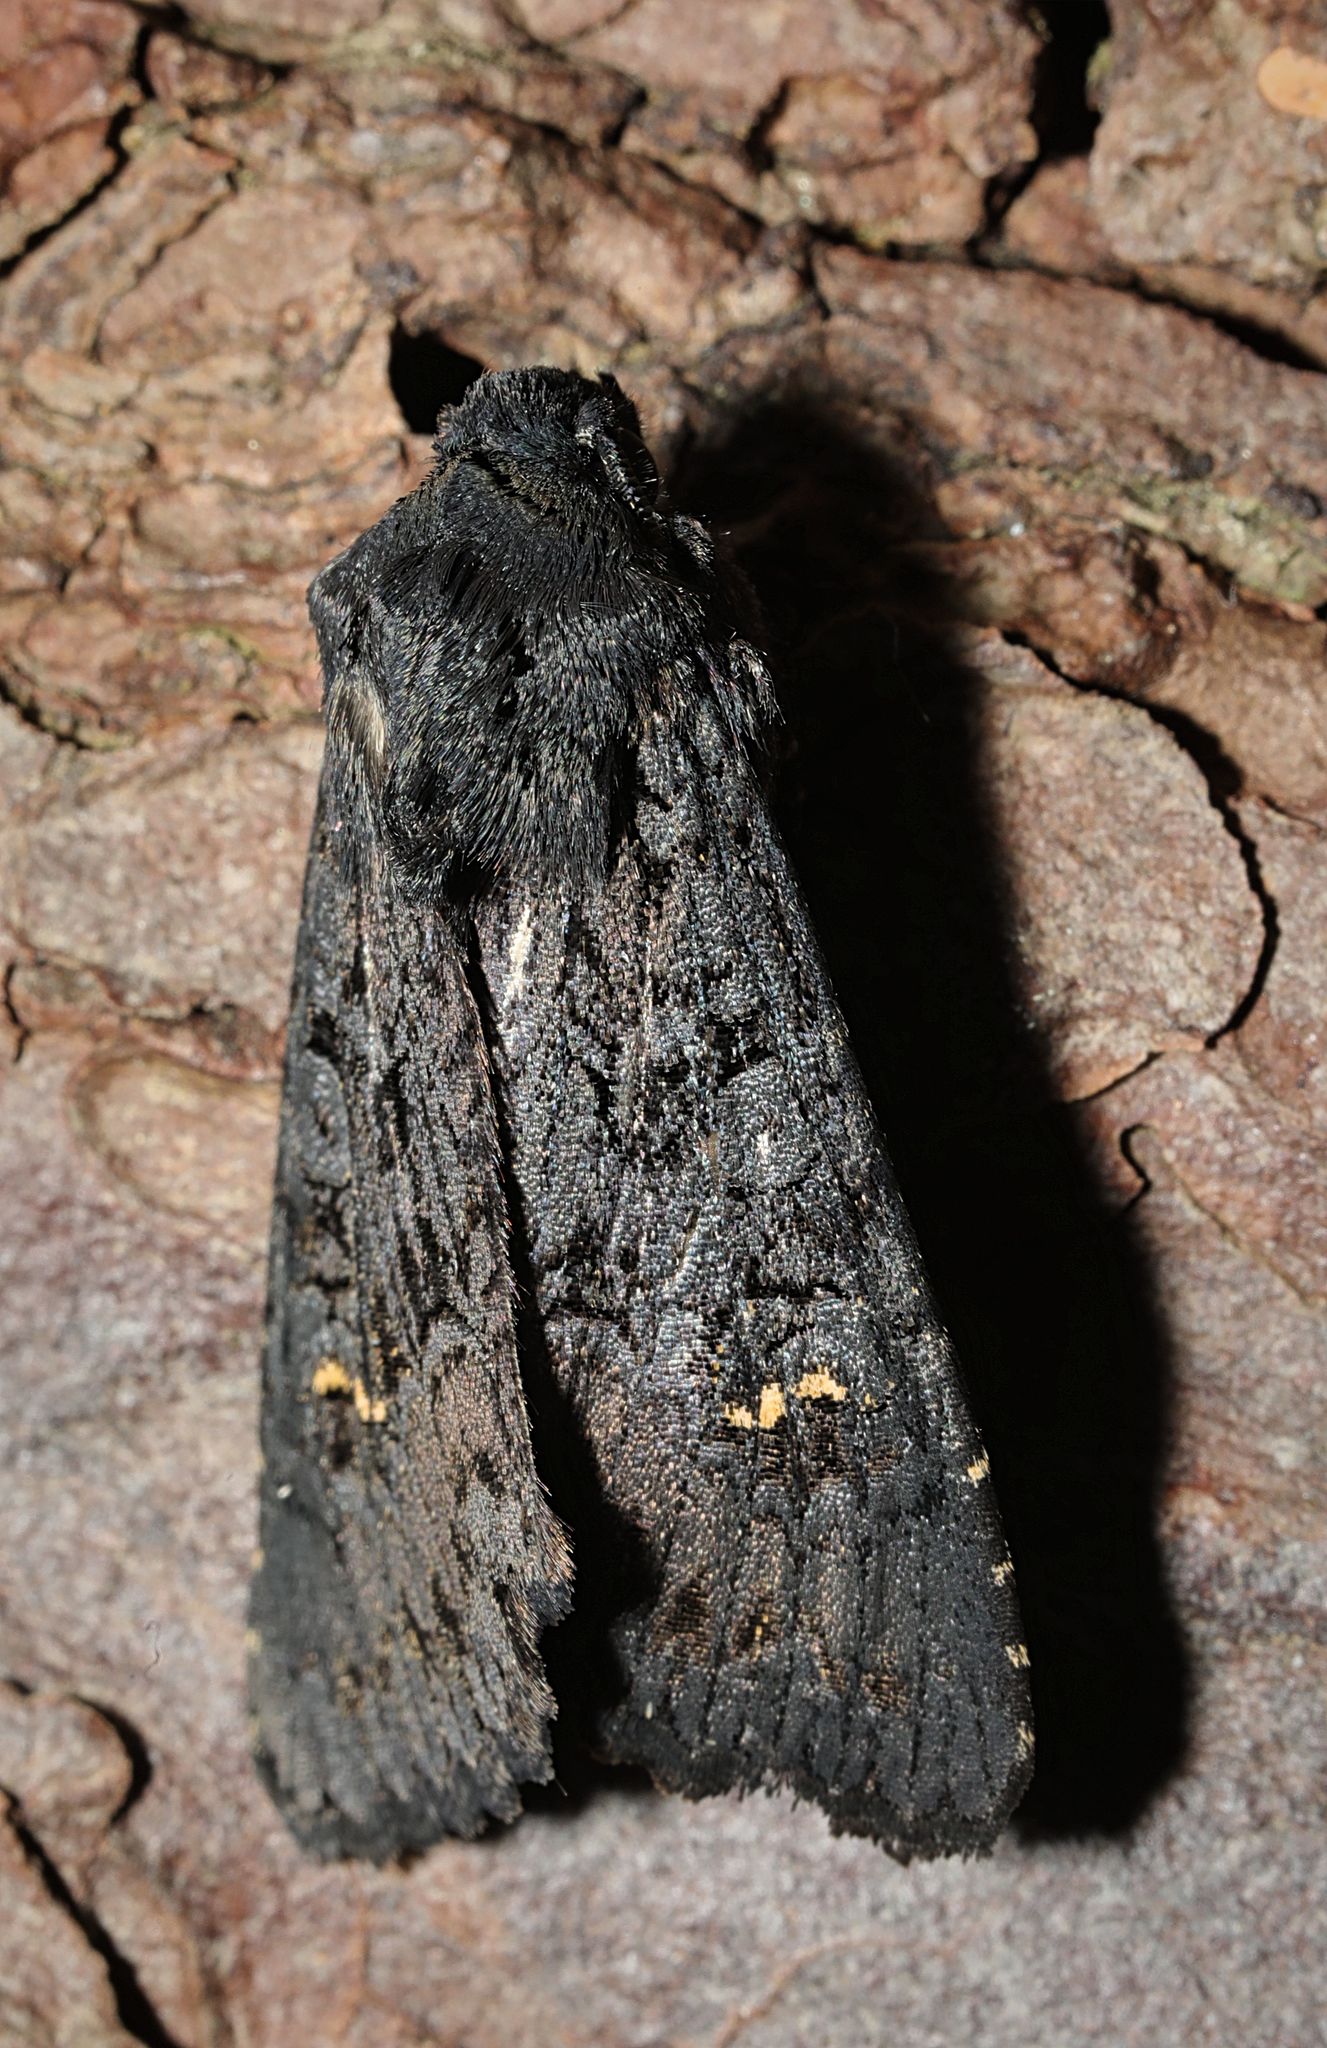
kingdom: Animalia
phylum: Arthropoda
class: Insecta
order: Lepidoptera
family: Noctuidae
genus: Aporophyla
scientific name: Aporophyla nigra
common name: Black rustic
